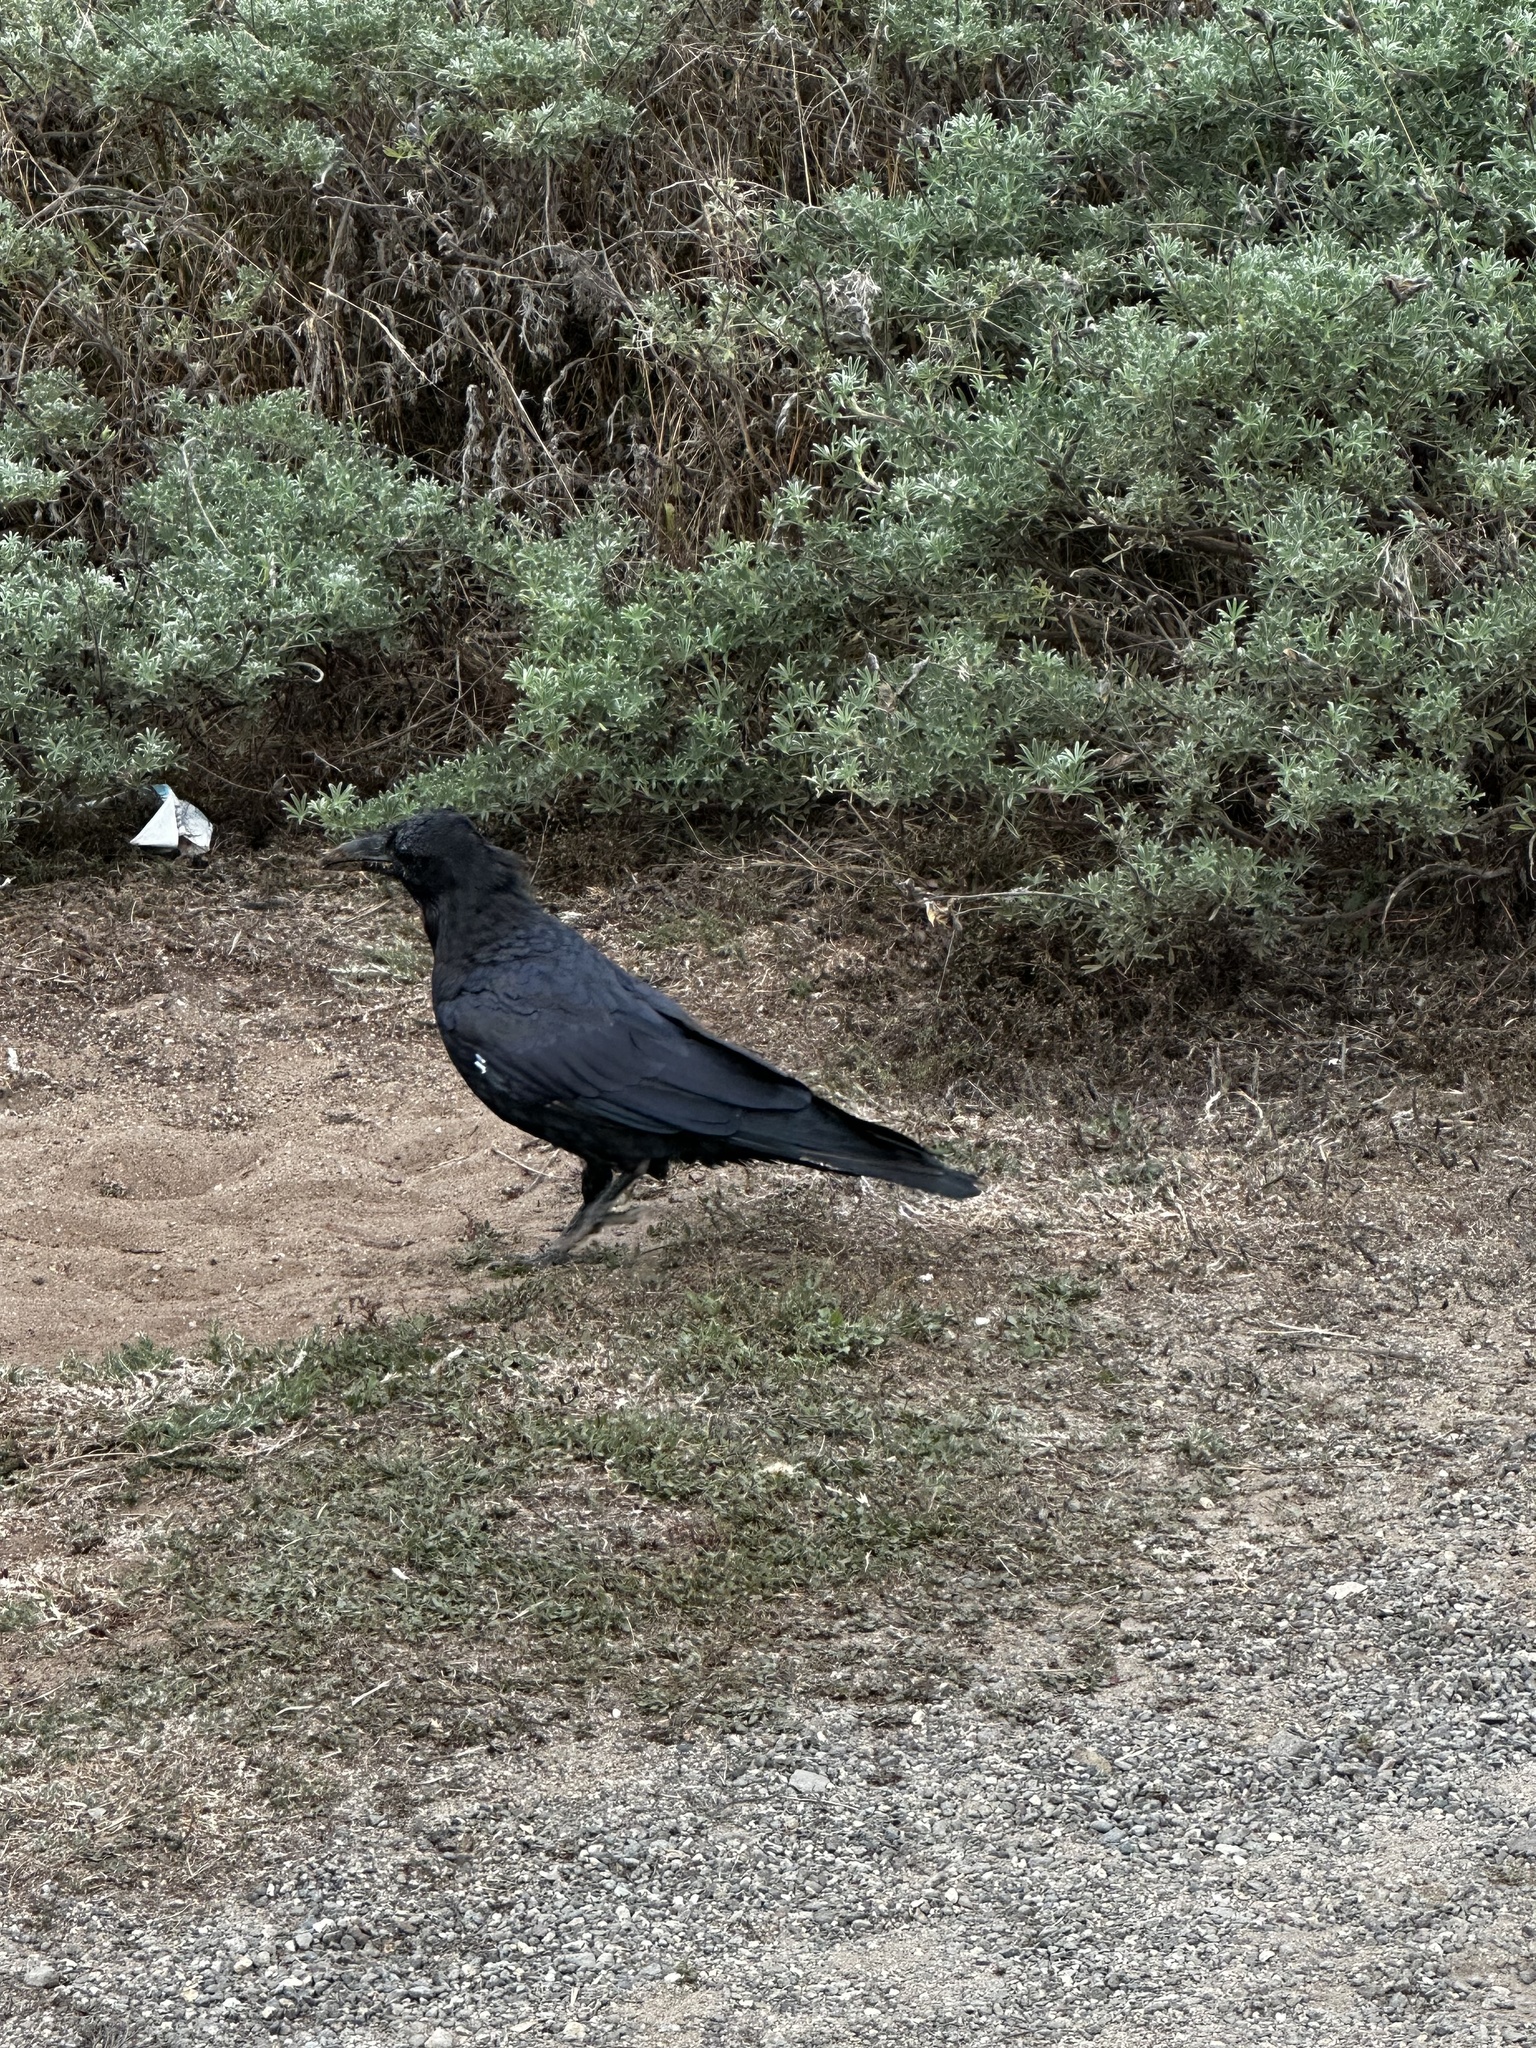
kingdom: Animalia
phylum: Chordata
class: Aves
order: Passeriformes
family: Corvidae
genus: Corvus
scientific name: Corvus corax
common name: Common raven
